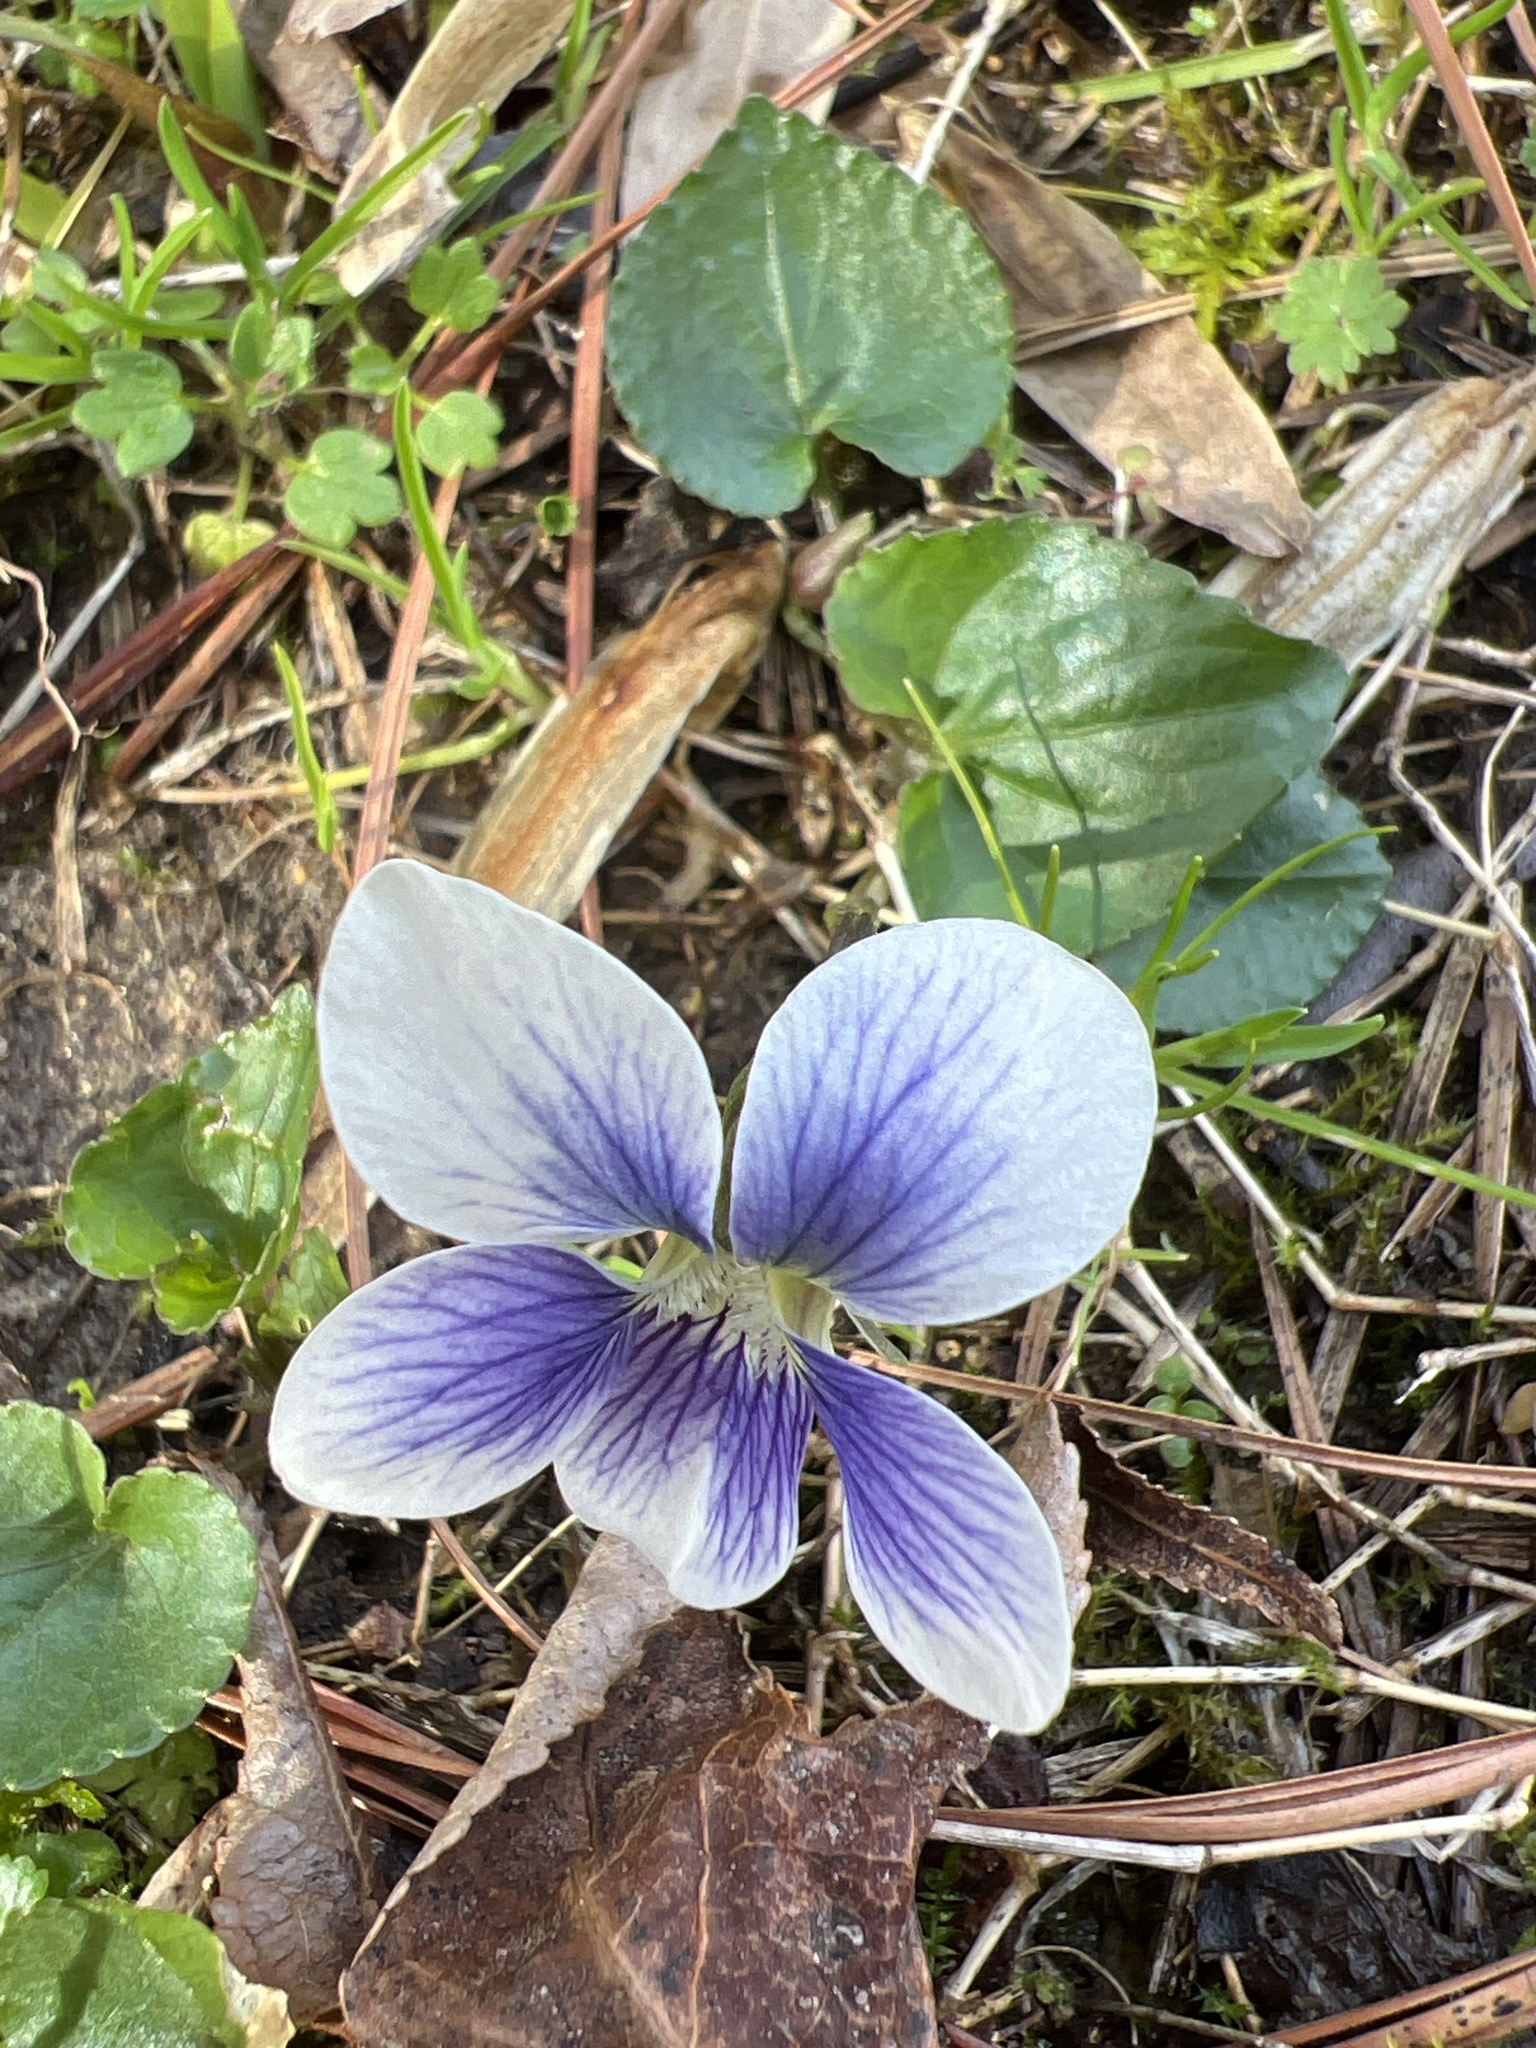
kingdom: Plantae
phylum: Tracheophyta
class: Magnoliopsida
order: Malpighiales
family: Violaceae
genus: Viola
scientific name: Viola communis
